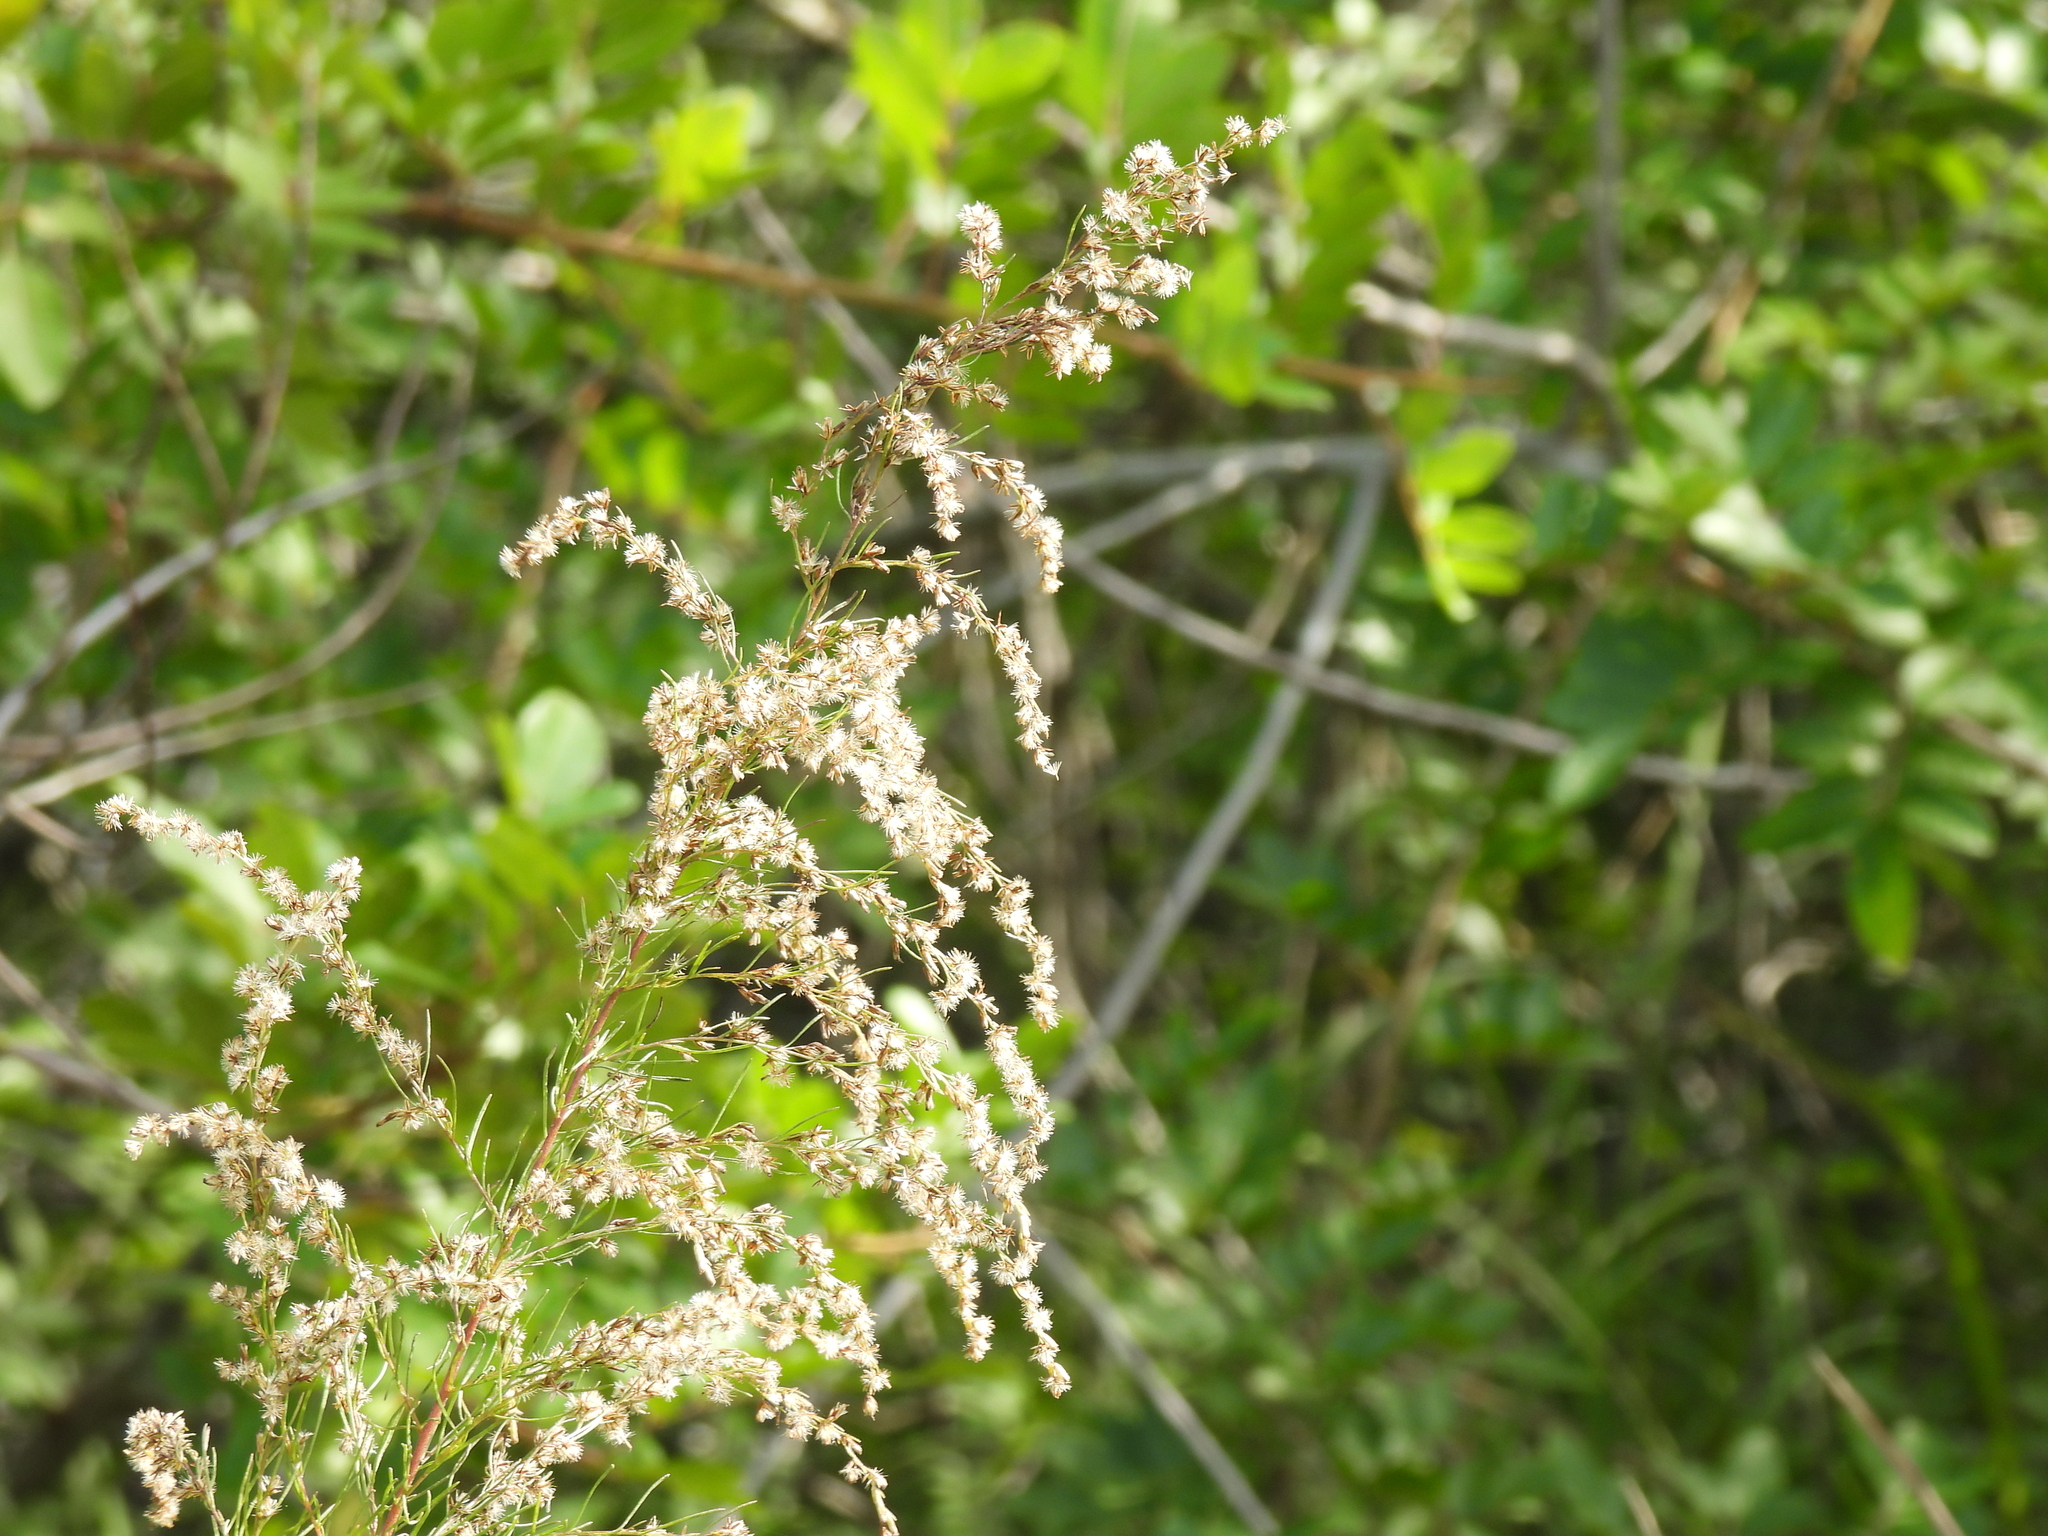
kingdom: Plantae
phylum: Tracheophyta
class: Magnoliopsida
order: Asterales
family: Asteraceae
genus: Eupatorium
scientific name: Eupatorium capillifolium
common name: Dog-fennel
